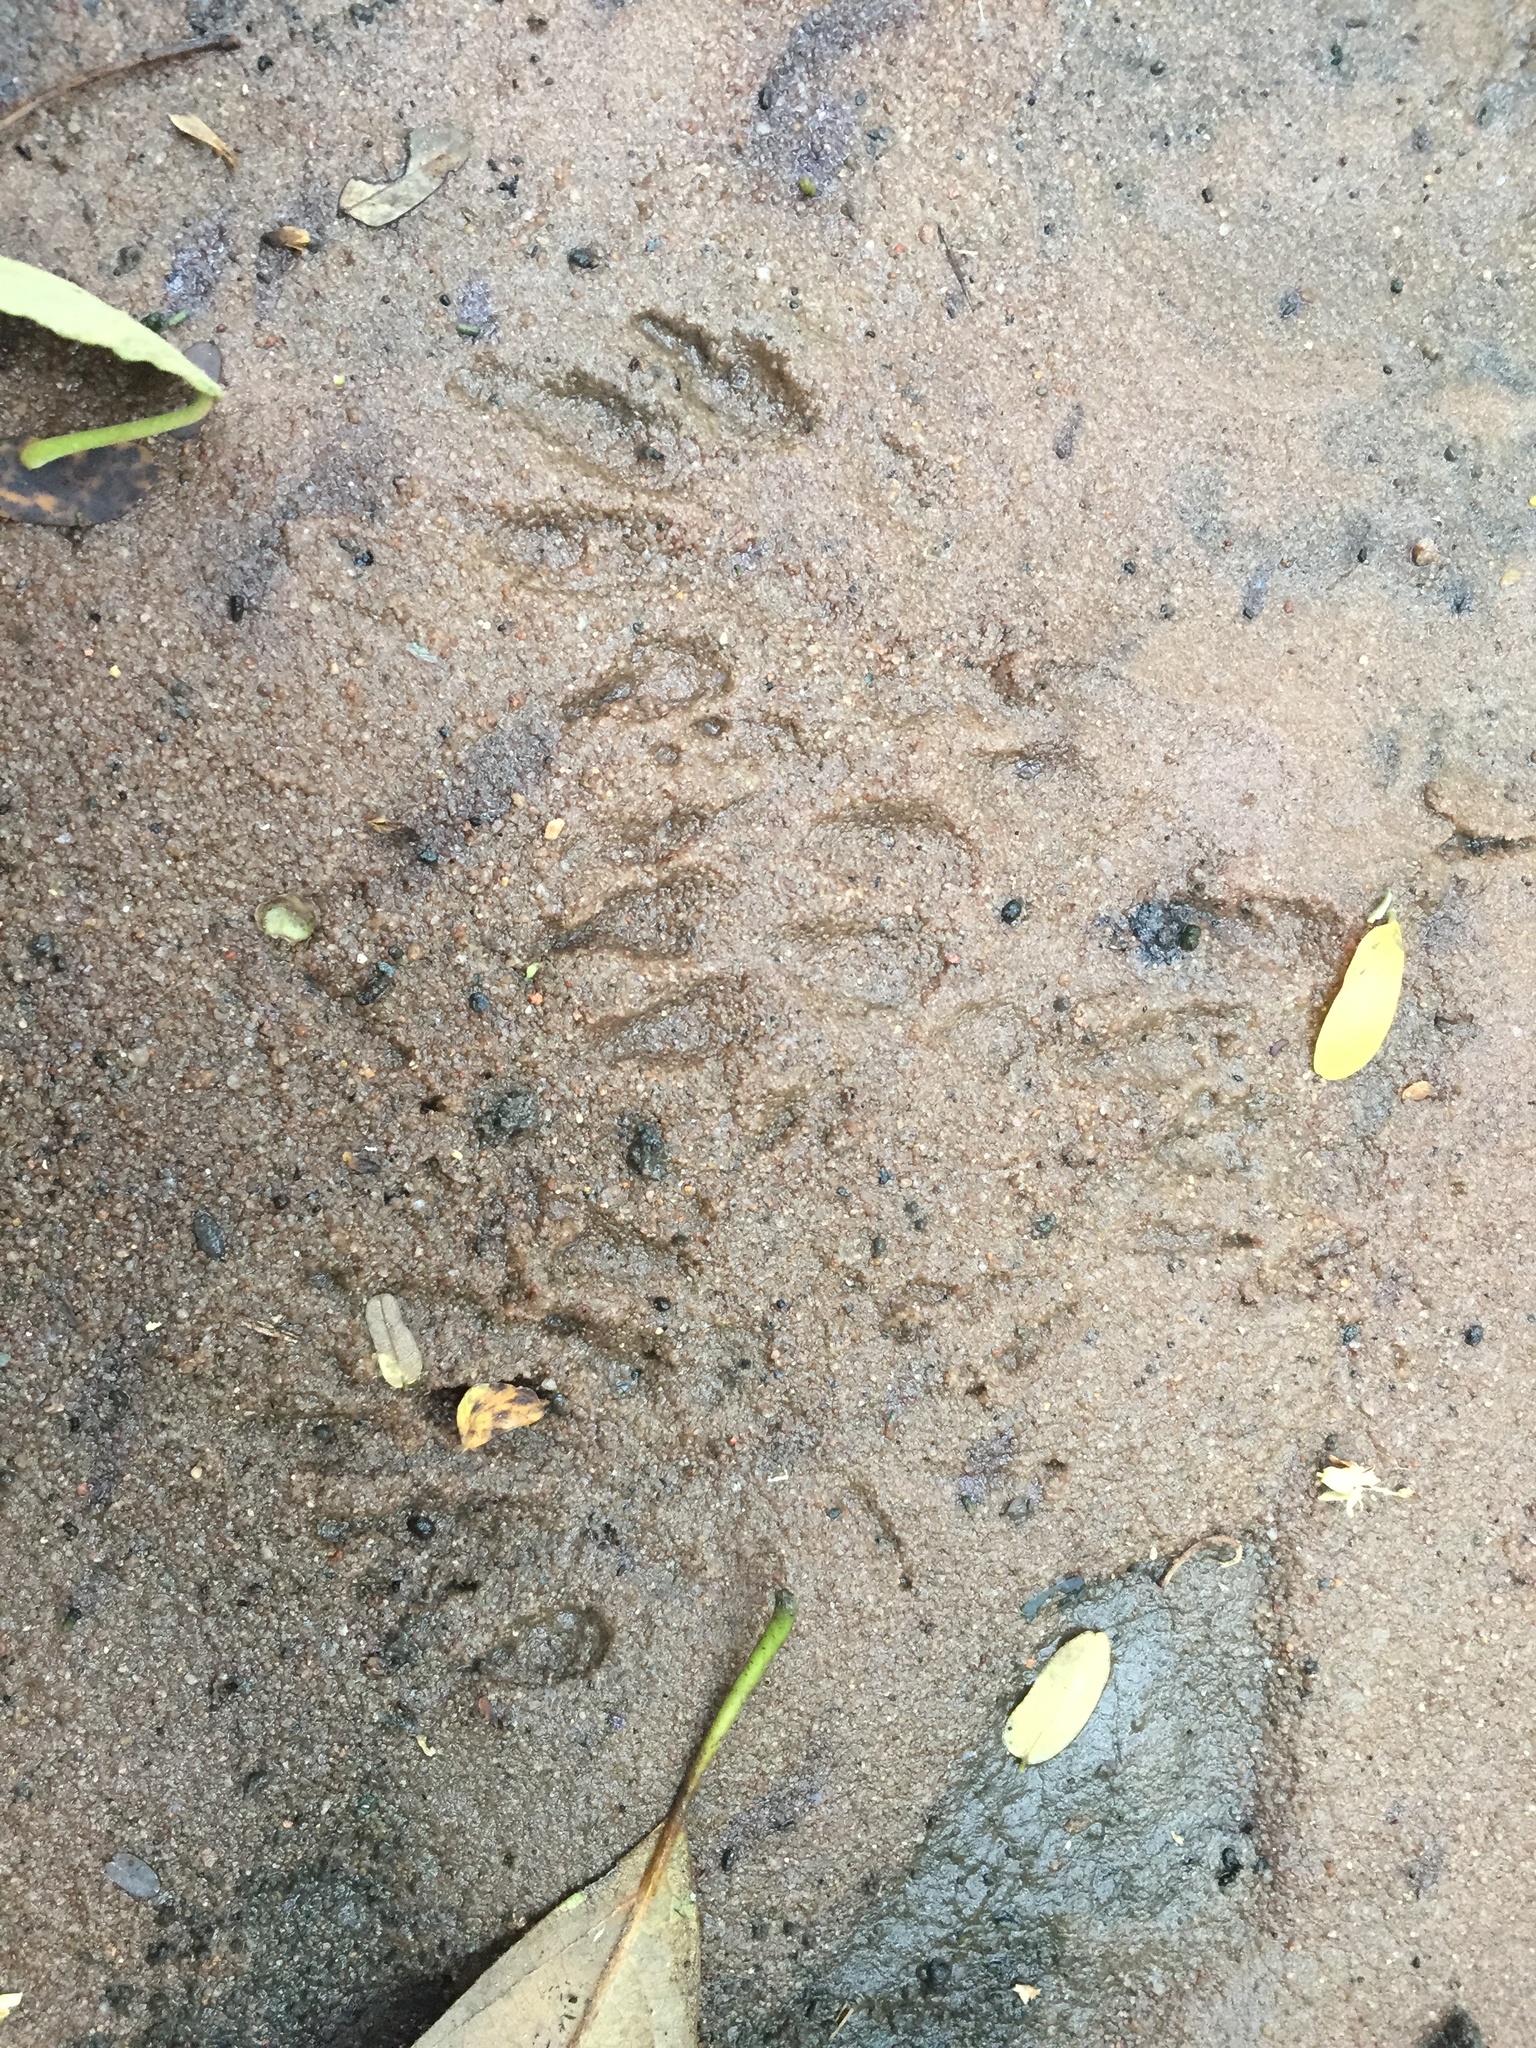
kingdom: Animalia
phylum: Chordata
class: Mammalia
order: Carnivora
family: Herpestidae
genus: Atilax
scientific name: Atilax paludinosus
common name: Marsh mongoose
